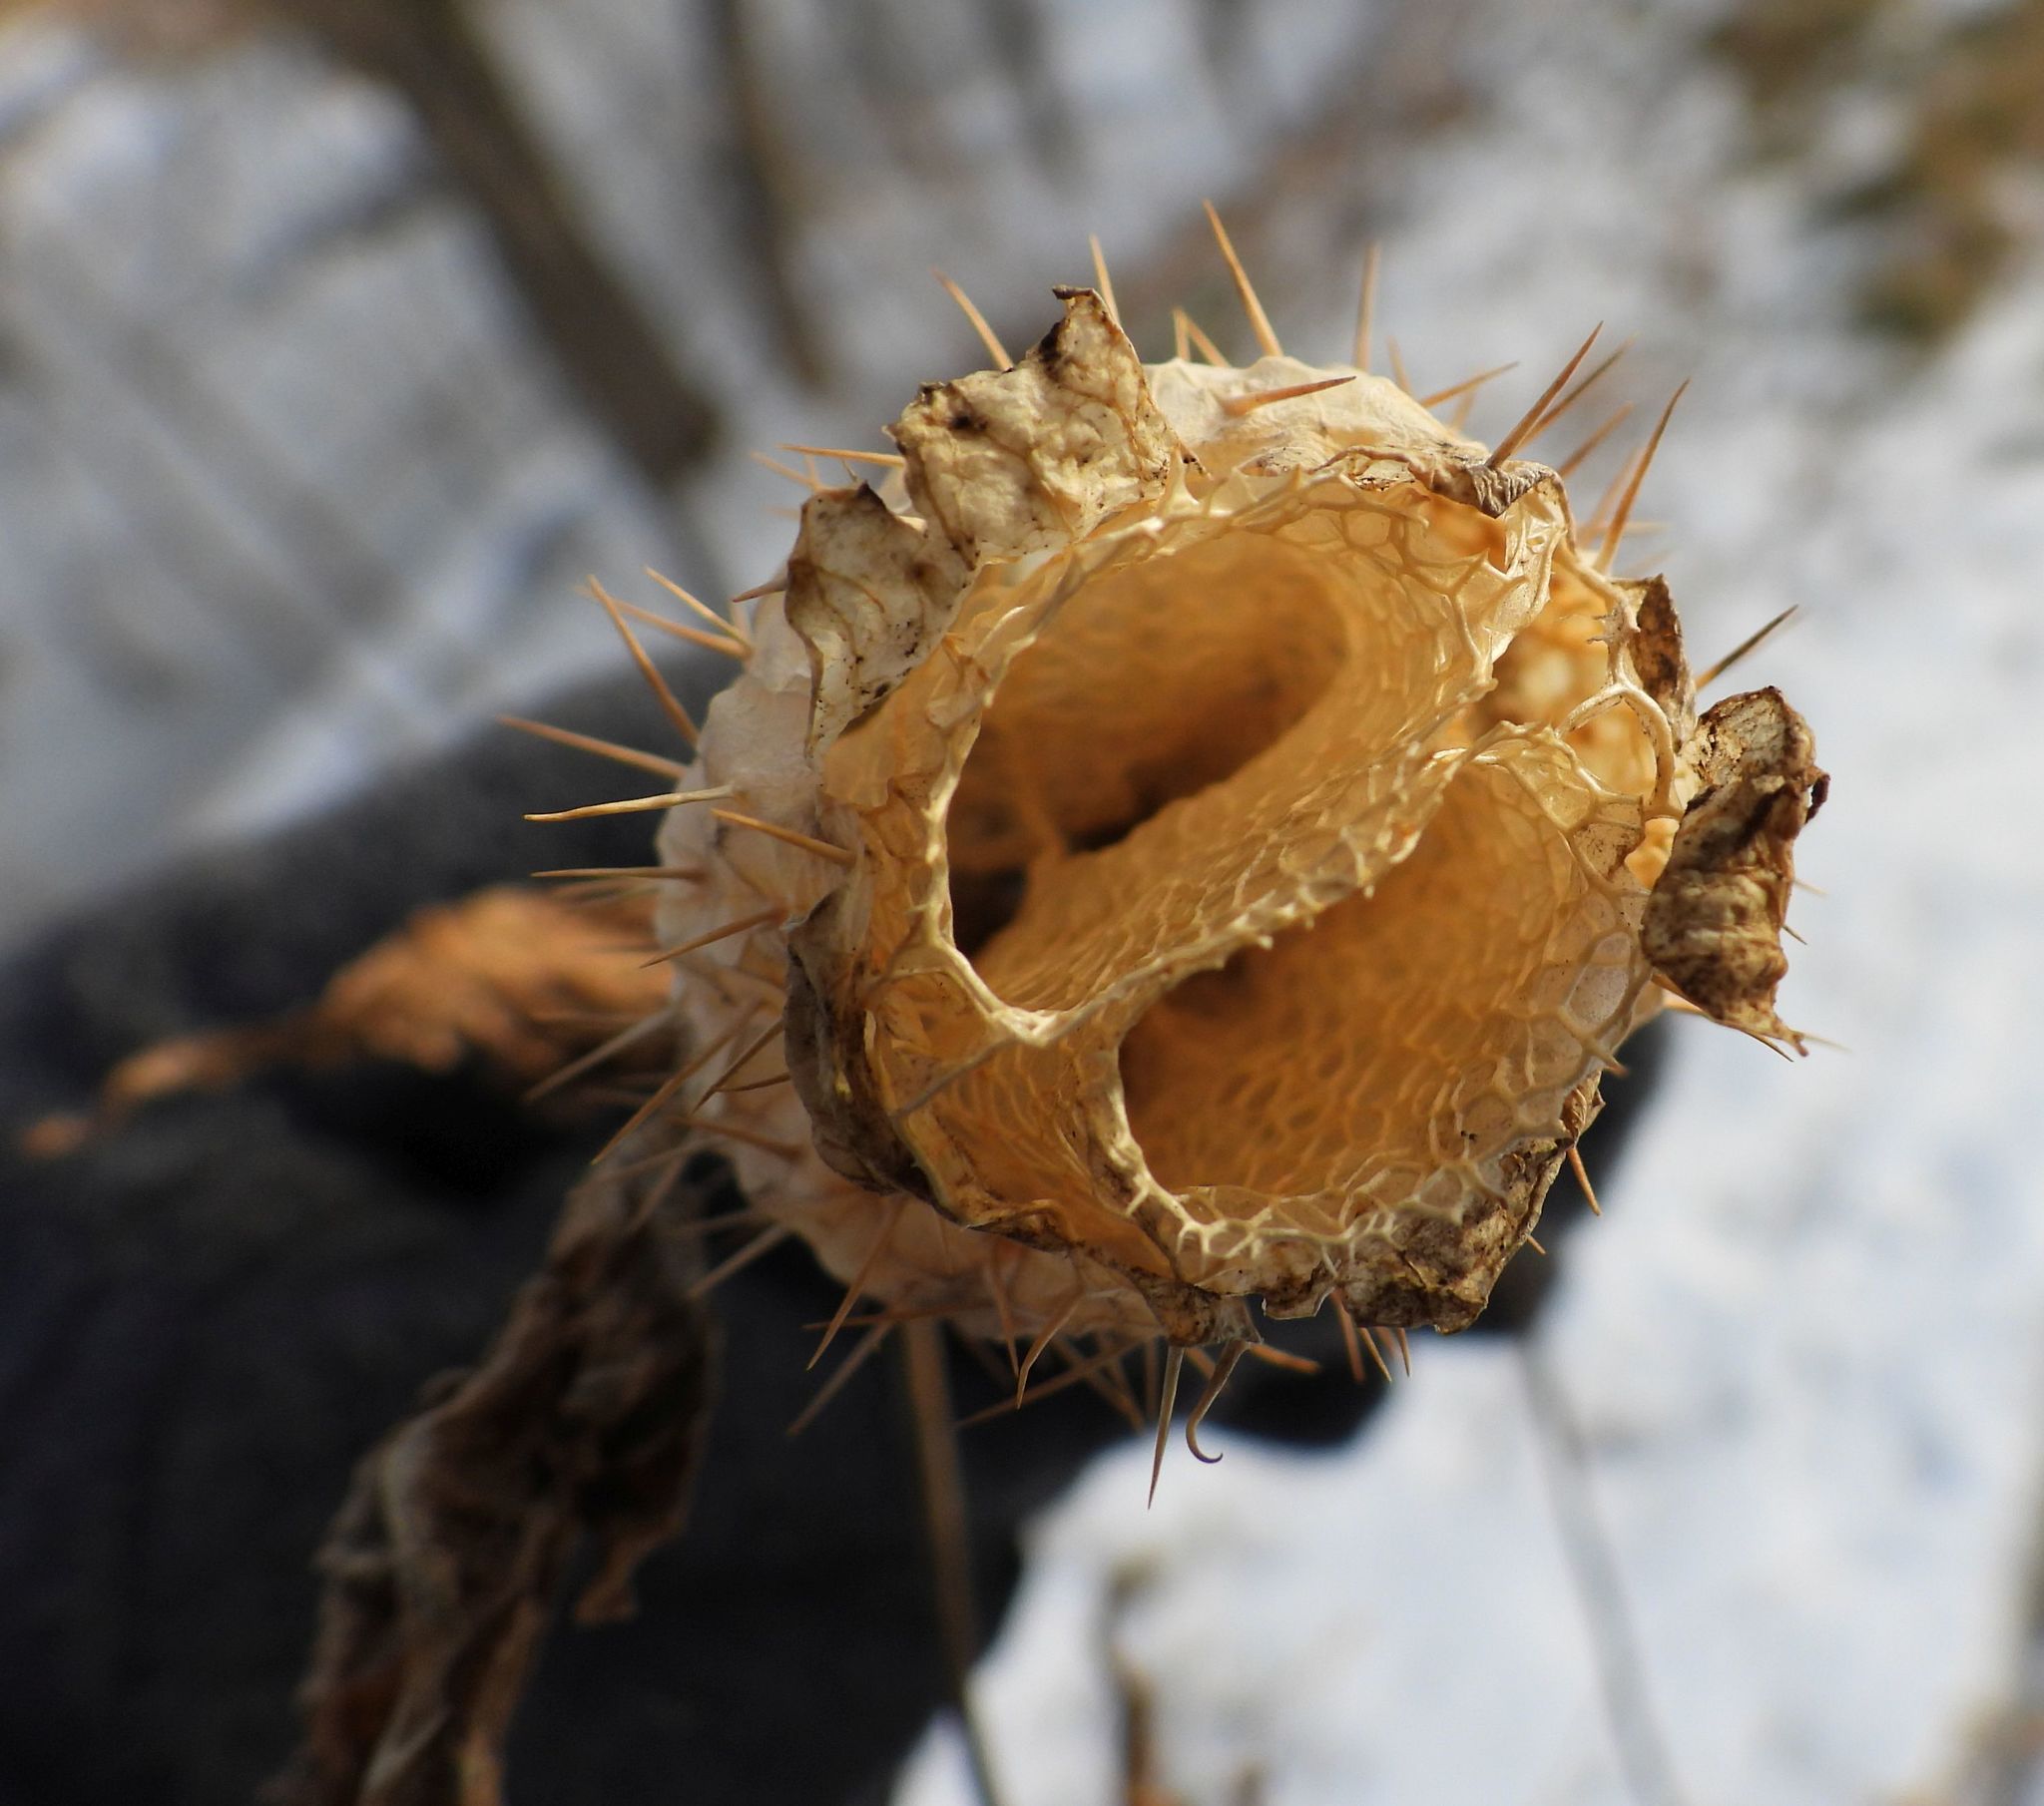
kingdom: Plantae
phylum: Tracheophyta
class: Magnoliopsida
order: Cucurbitales
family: Cucurbitaceae
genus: Echinocystis
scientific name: Echinocystis lobata
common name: Wild cucumber
